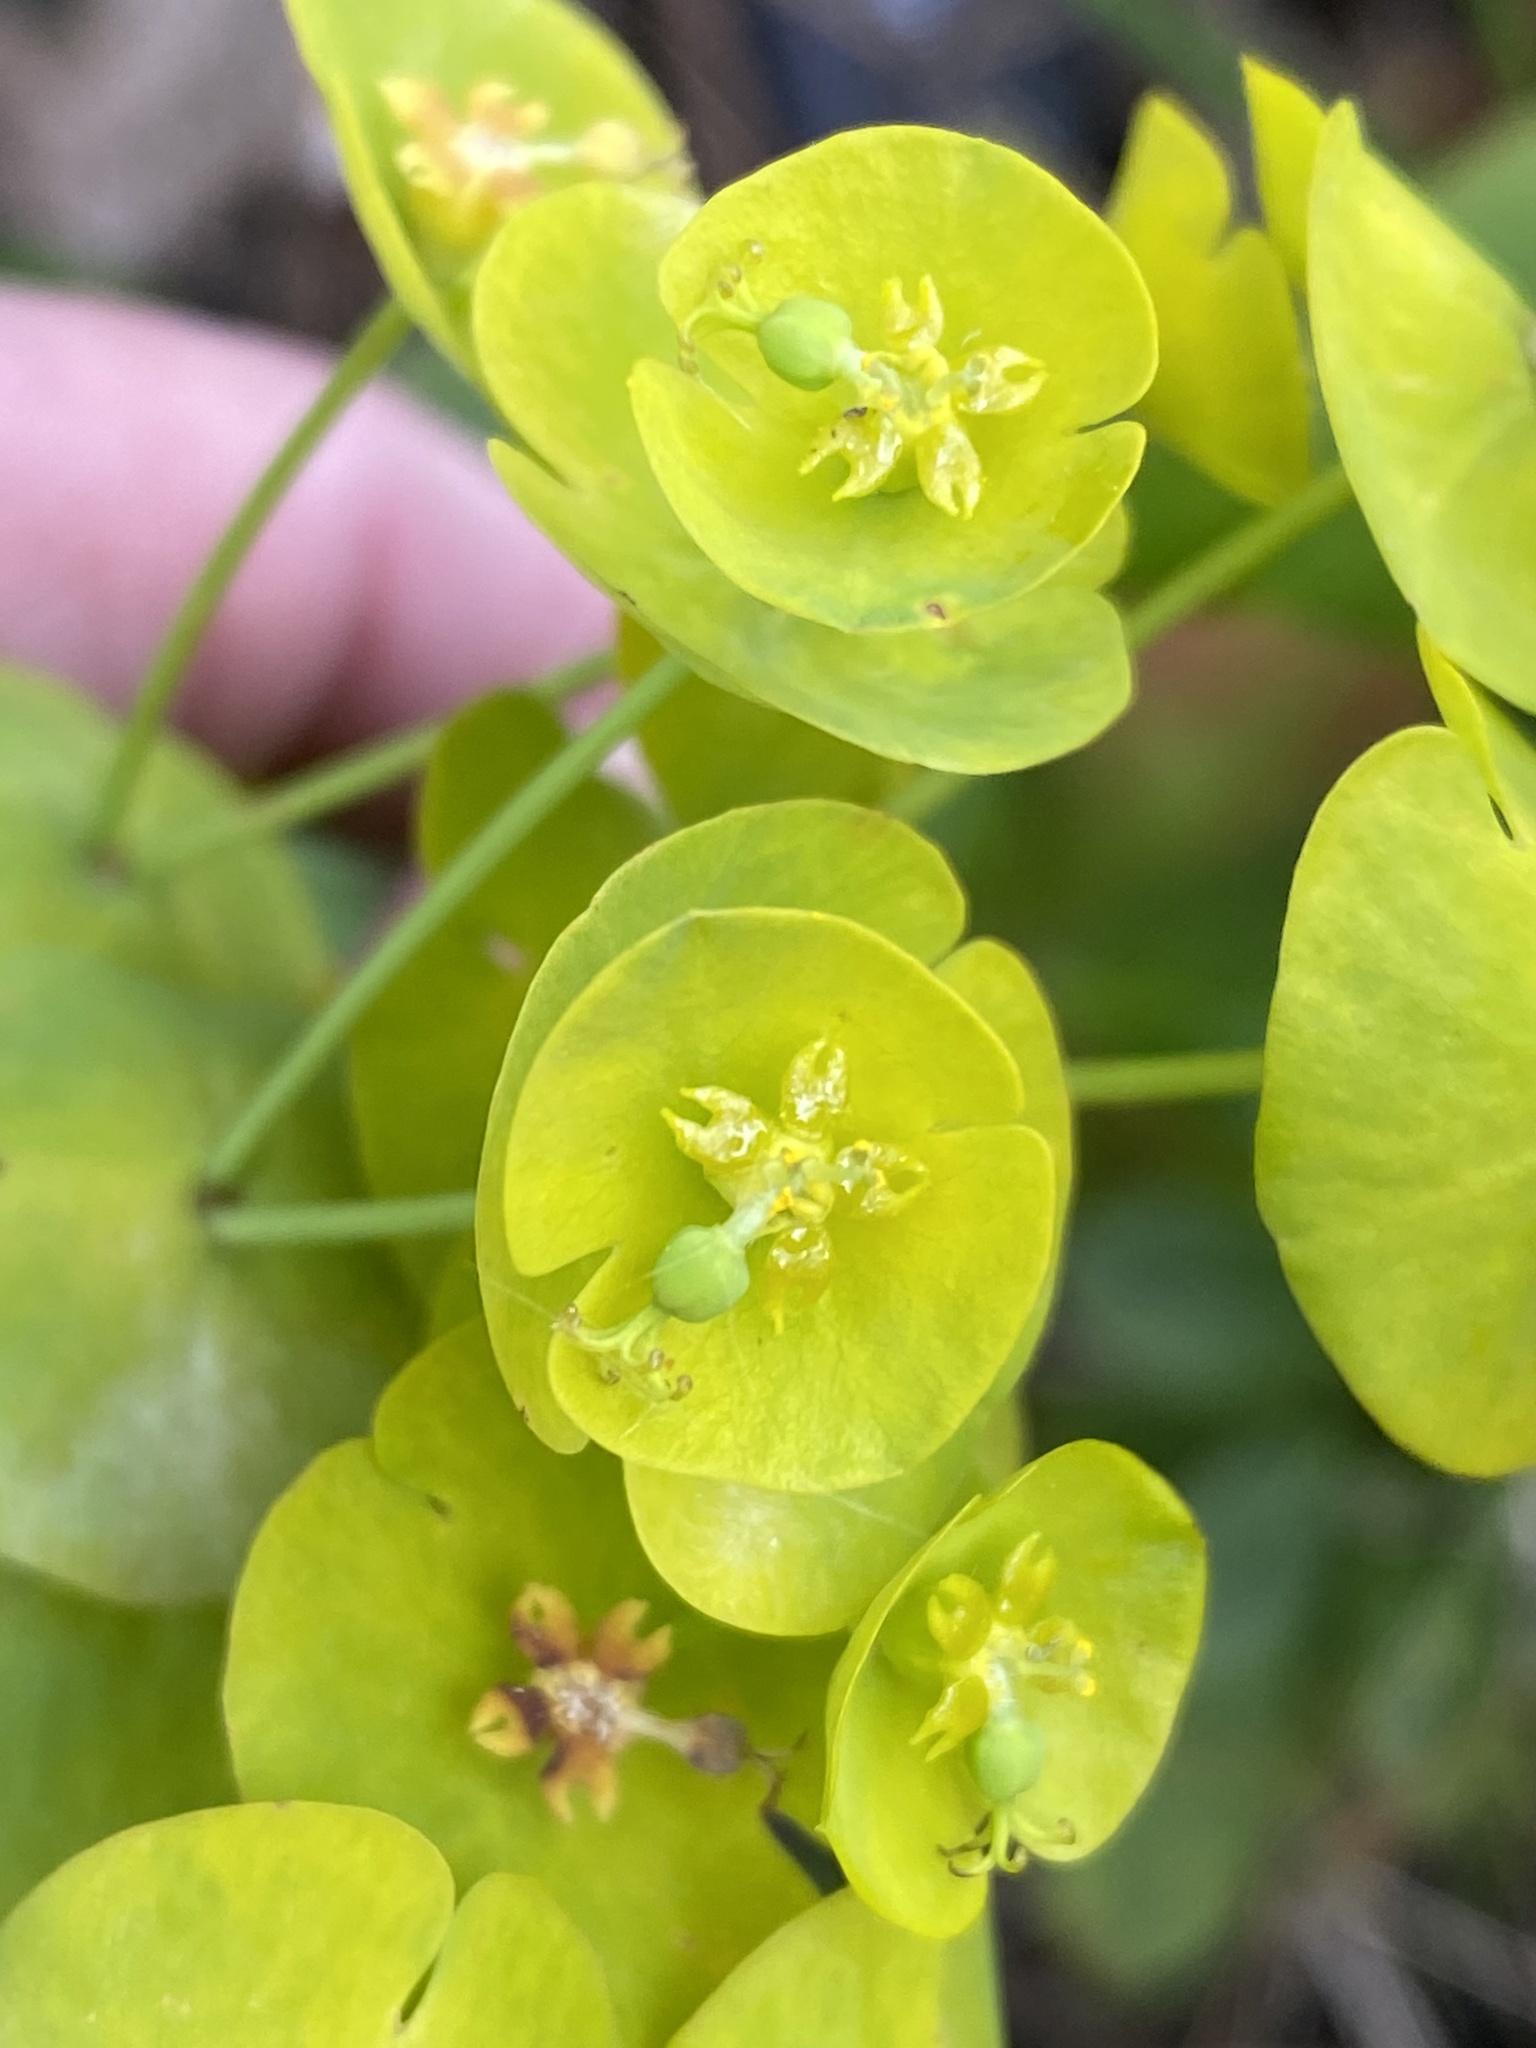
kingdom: Plantae
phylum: Tracheophyta
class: Magnoliopsida
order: Malpighiales
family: Euphorbiaceae
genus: Euphorbia
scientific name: Euphorbia amygdaloides
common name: Wood spurge
